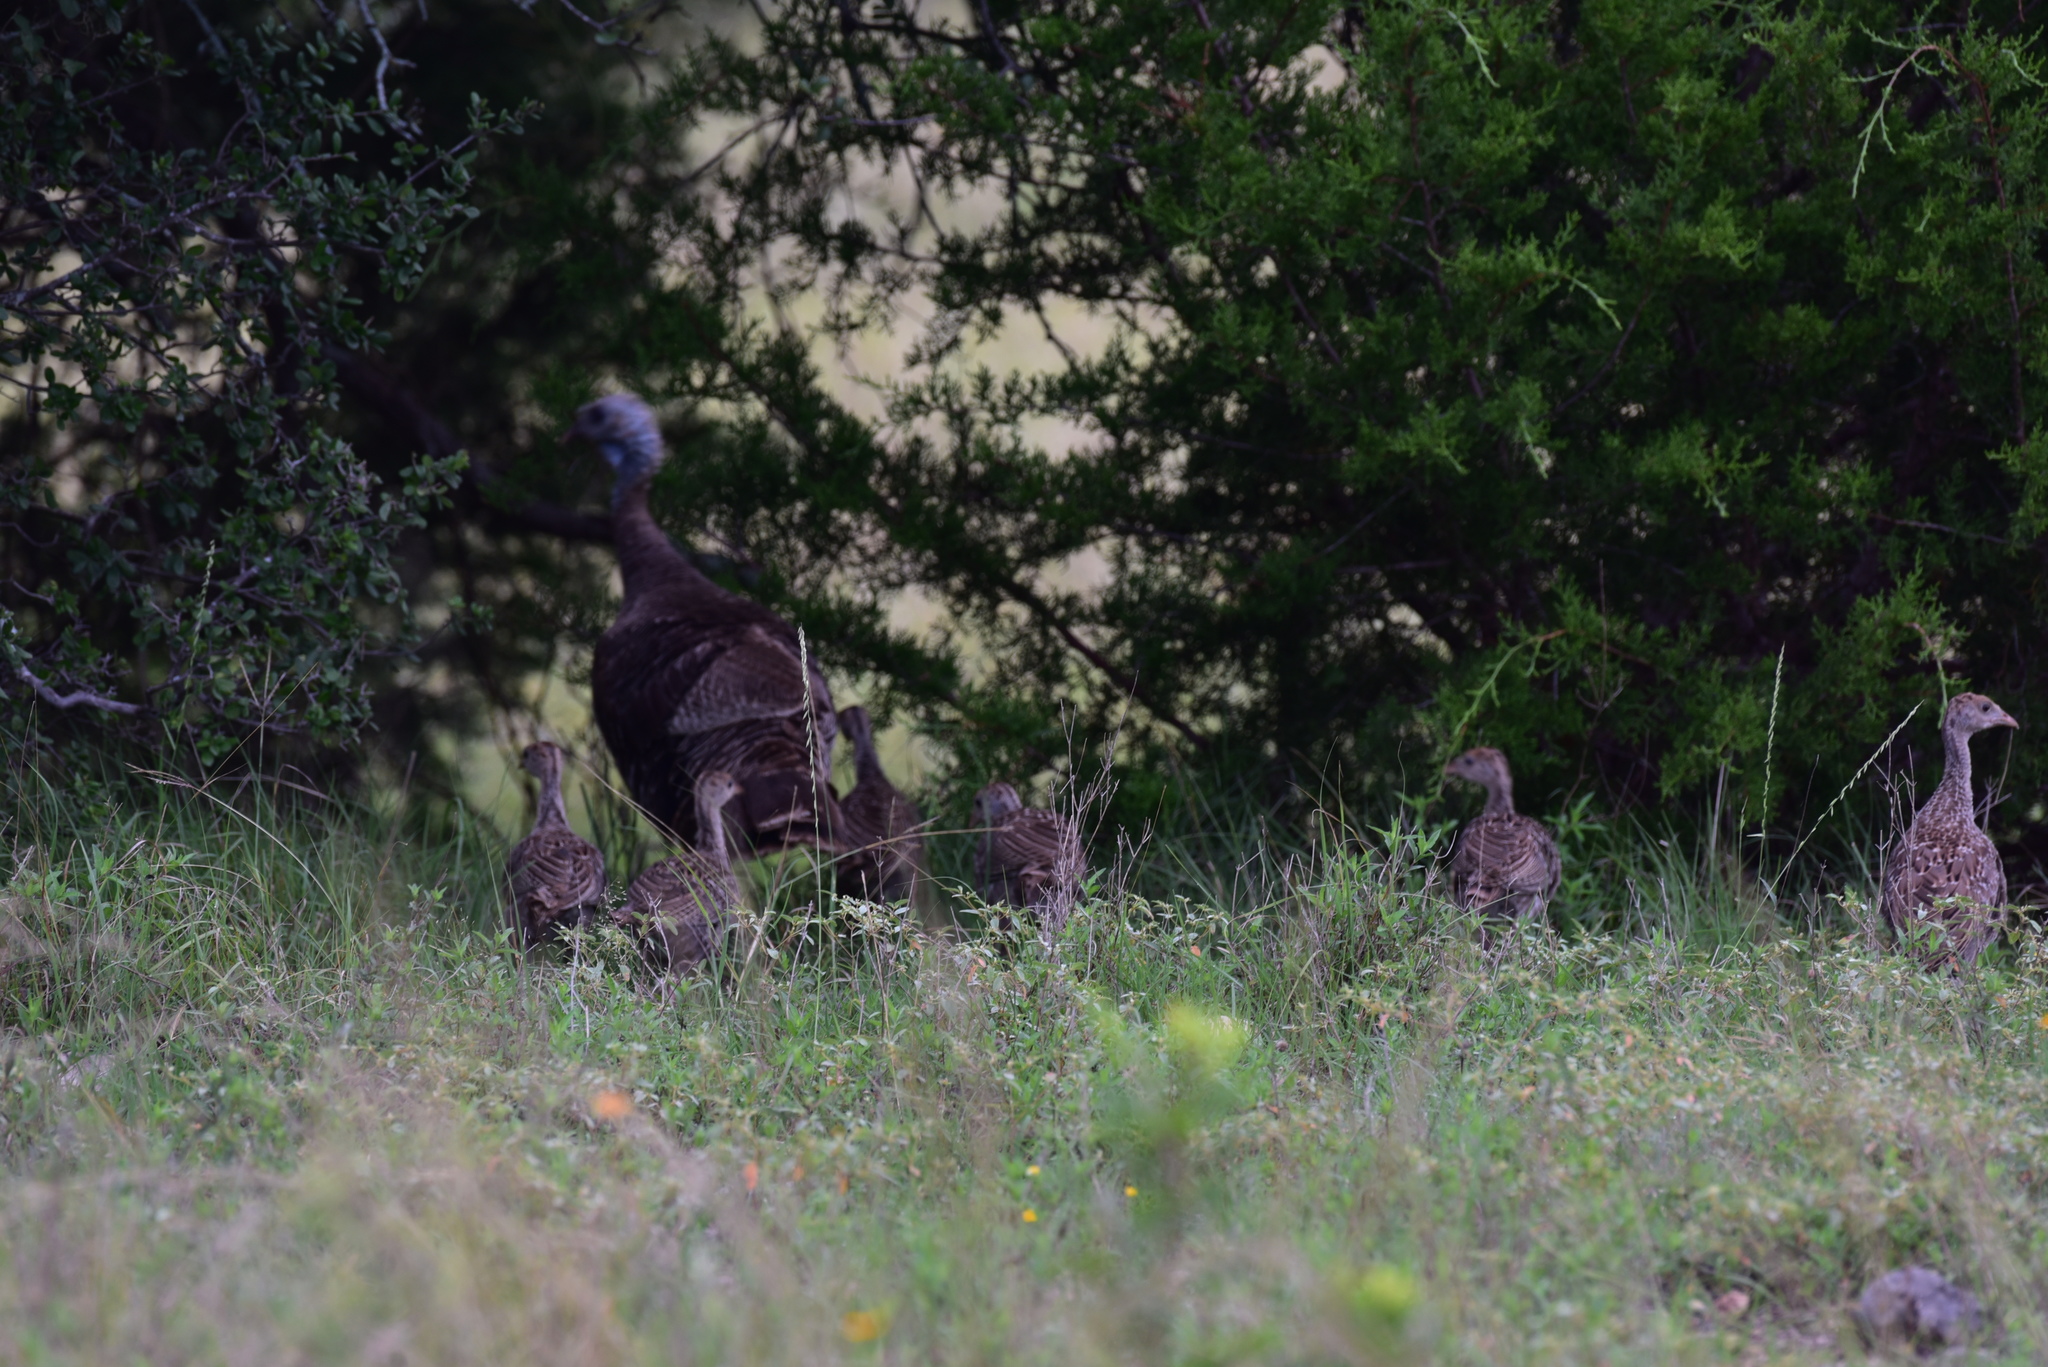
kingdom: Animalia
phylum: Chordata
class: Aves
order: Galliformes
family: Phasianidae
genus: Meleagris
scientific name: Meleagris gallopavo
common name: Wild turkey
